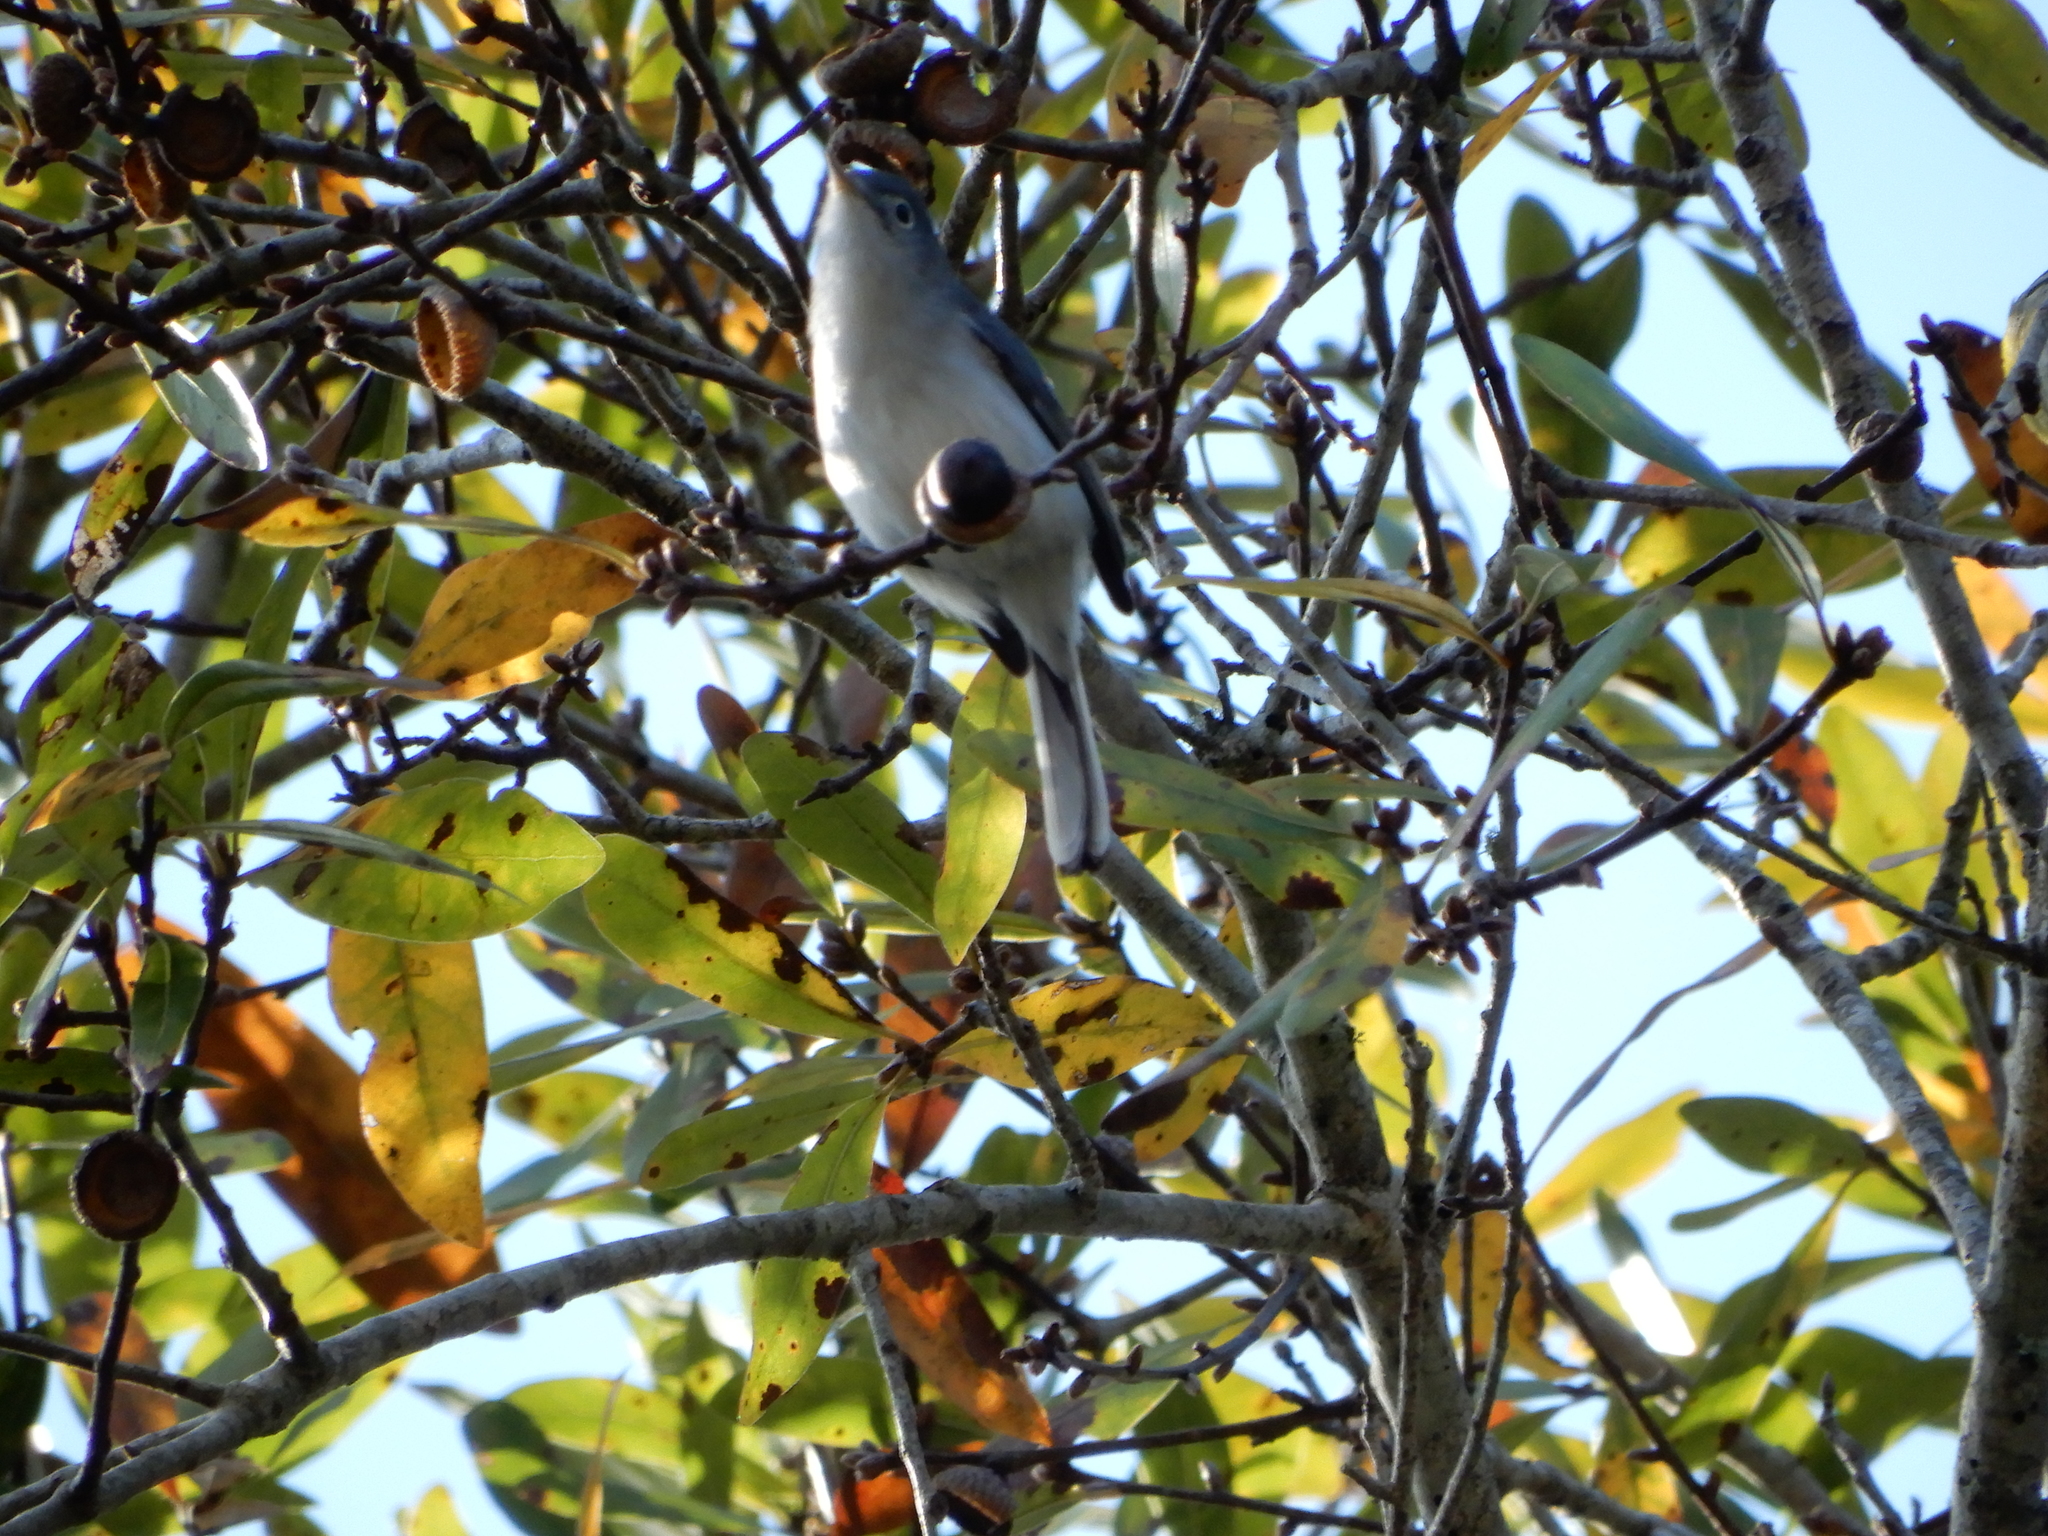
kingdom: Animalia
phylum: Chordata
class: Aves
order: Passeriformes
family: Polioptilidae
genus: Polioptila
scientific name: Polioptila caerulea
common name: Blue-gray gnatcatcher
